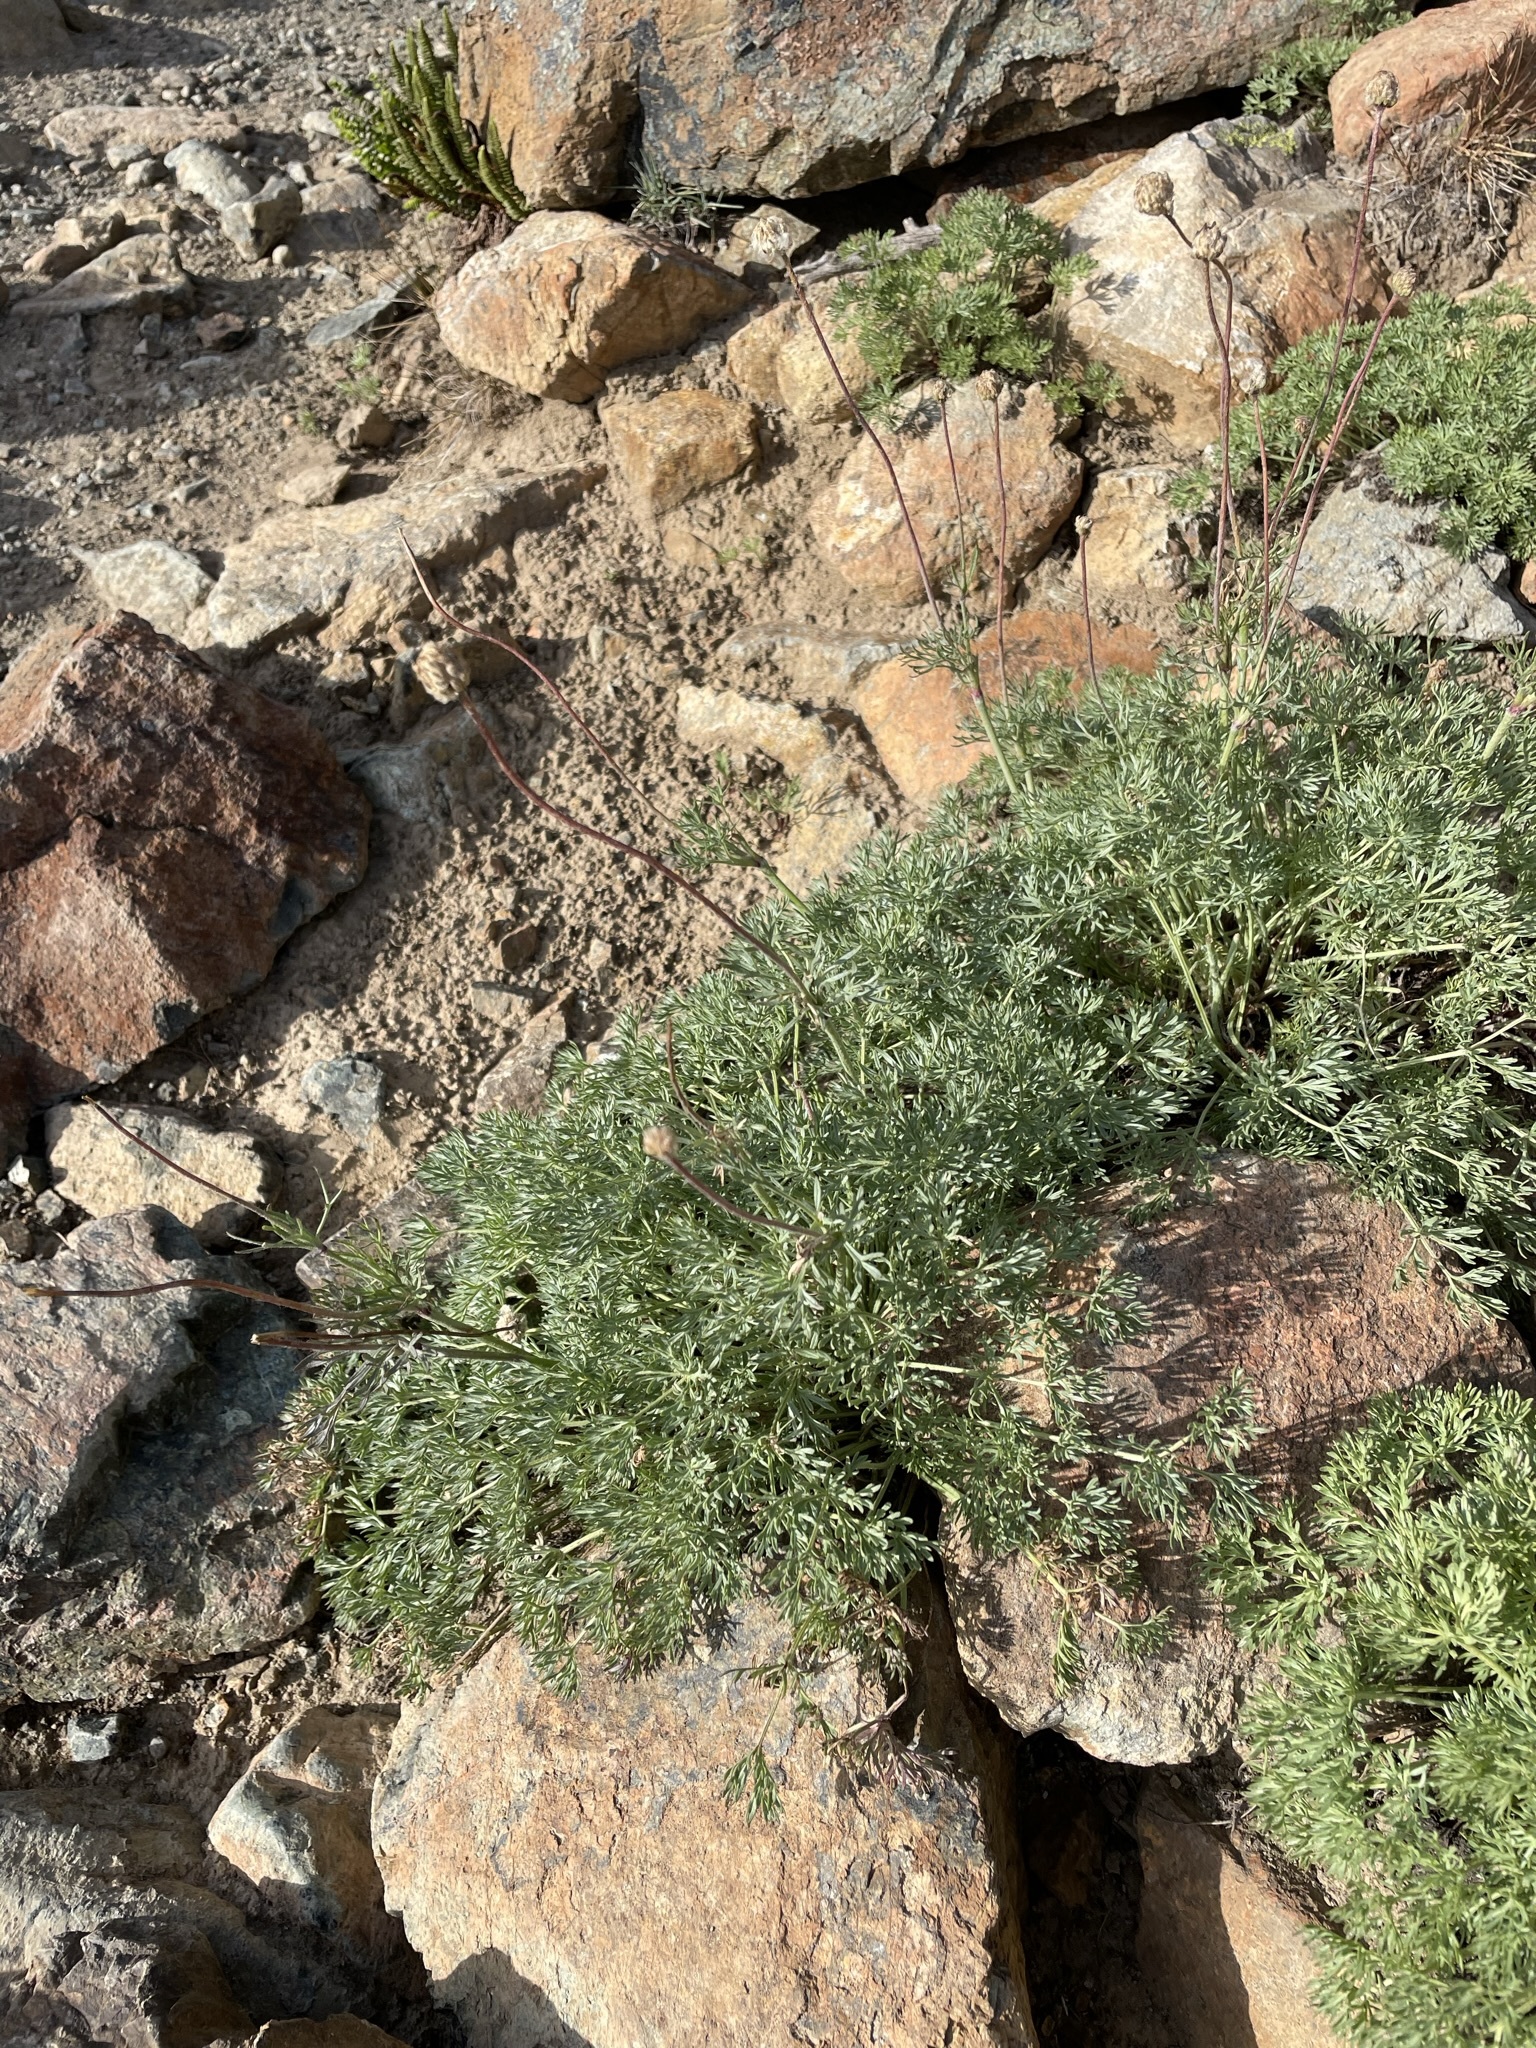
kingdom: Plantae
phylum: Tracheophyta
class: Magnoliopsida
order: Ranunculales
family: Ranunculaceae
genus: Anemone
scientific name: Anemone drummondii
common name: Drummond's anemone
